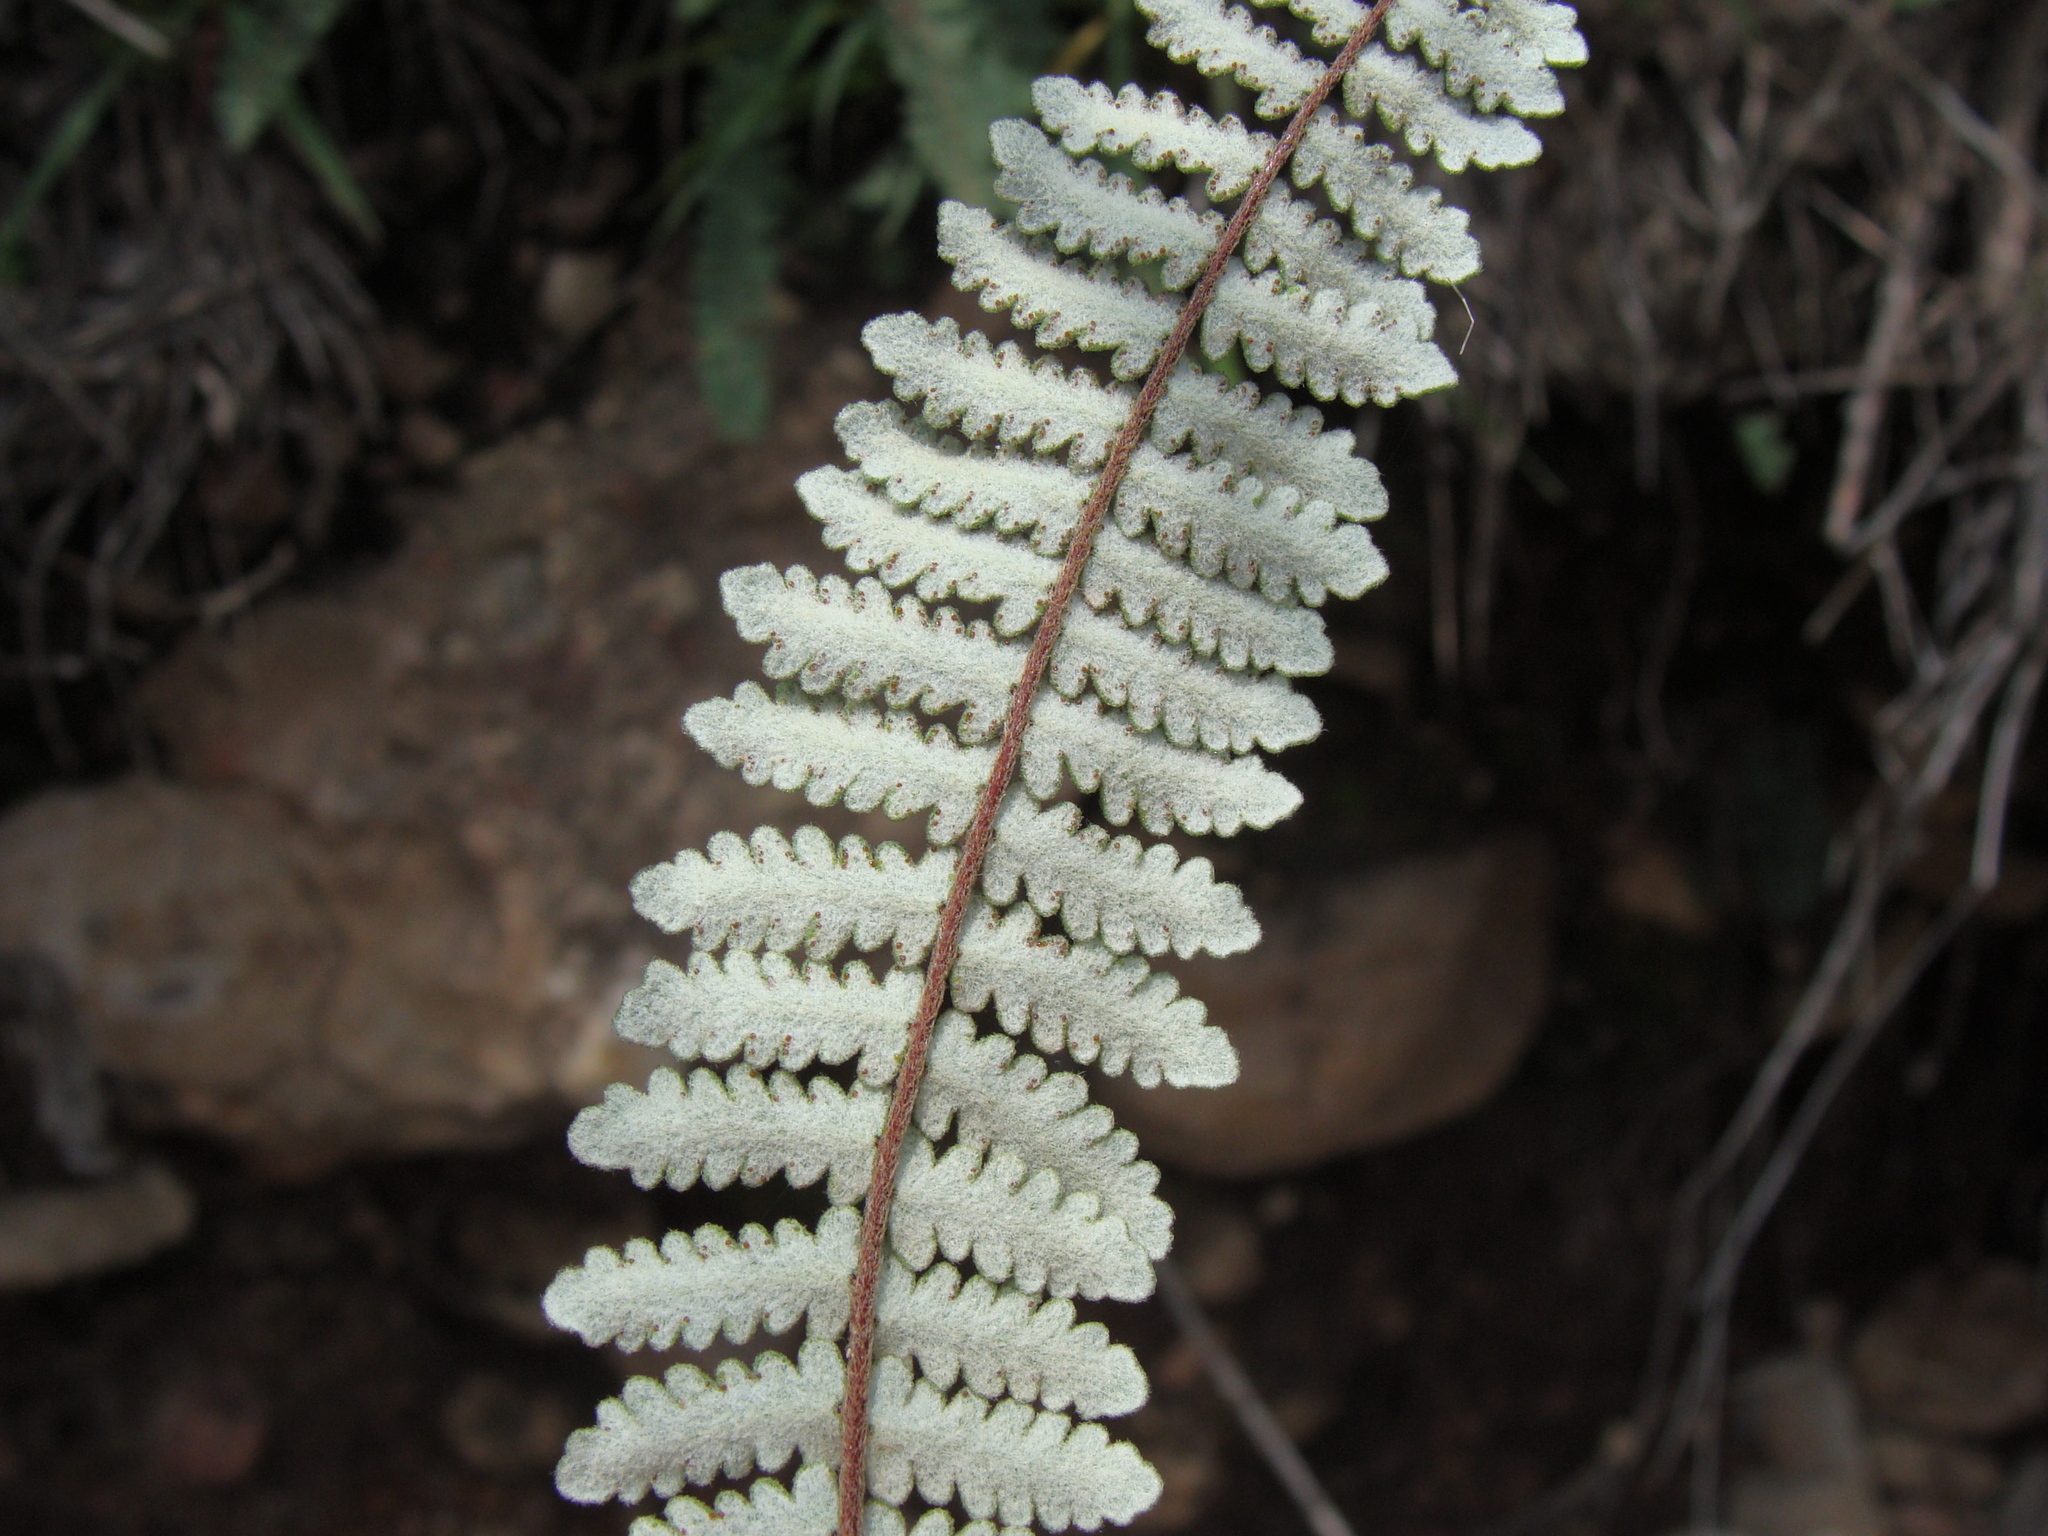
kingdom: Plantae
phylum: Tracheophyta
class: Polypodiopsida
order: Polypodiales
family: Pteridaceae
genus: Myriopteris
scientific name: Myriopteris aurea
